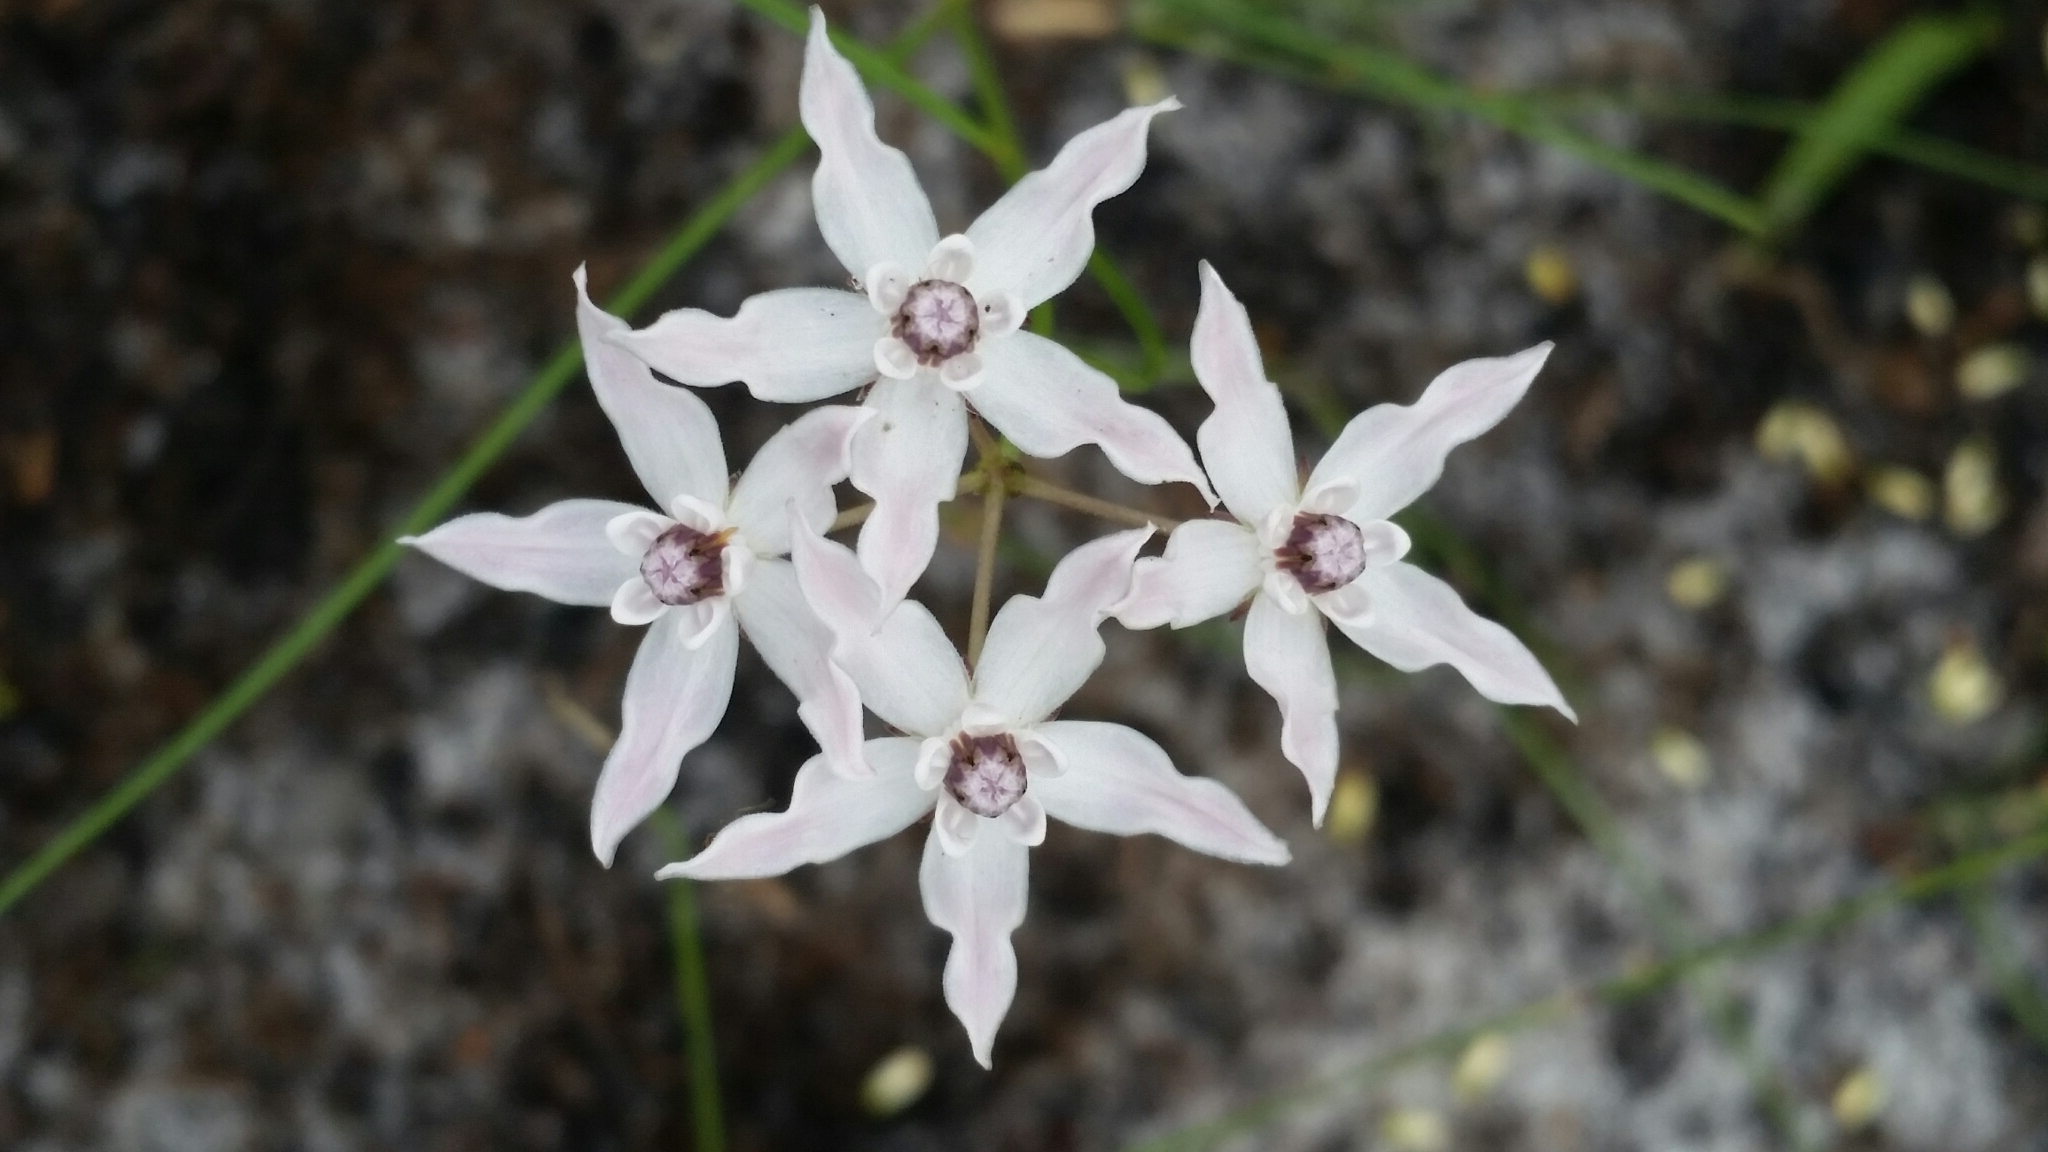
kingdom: Plantae
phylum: Tracheophyta
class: Magnoliopsida
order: Gentianales
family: Apocynaceae
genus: Asclepias
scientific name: Asclepias feayi
